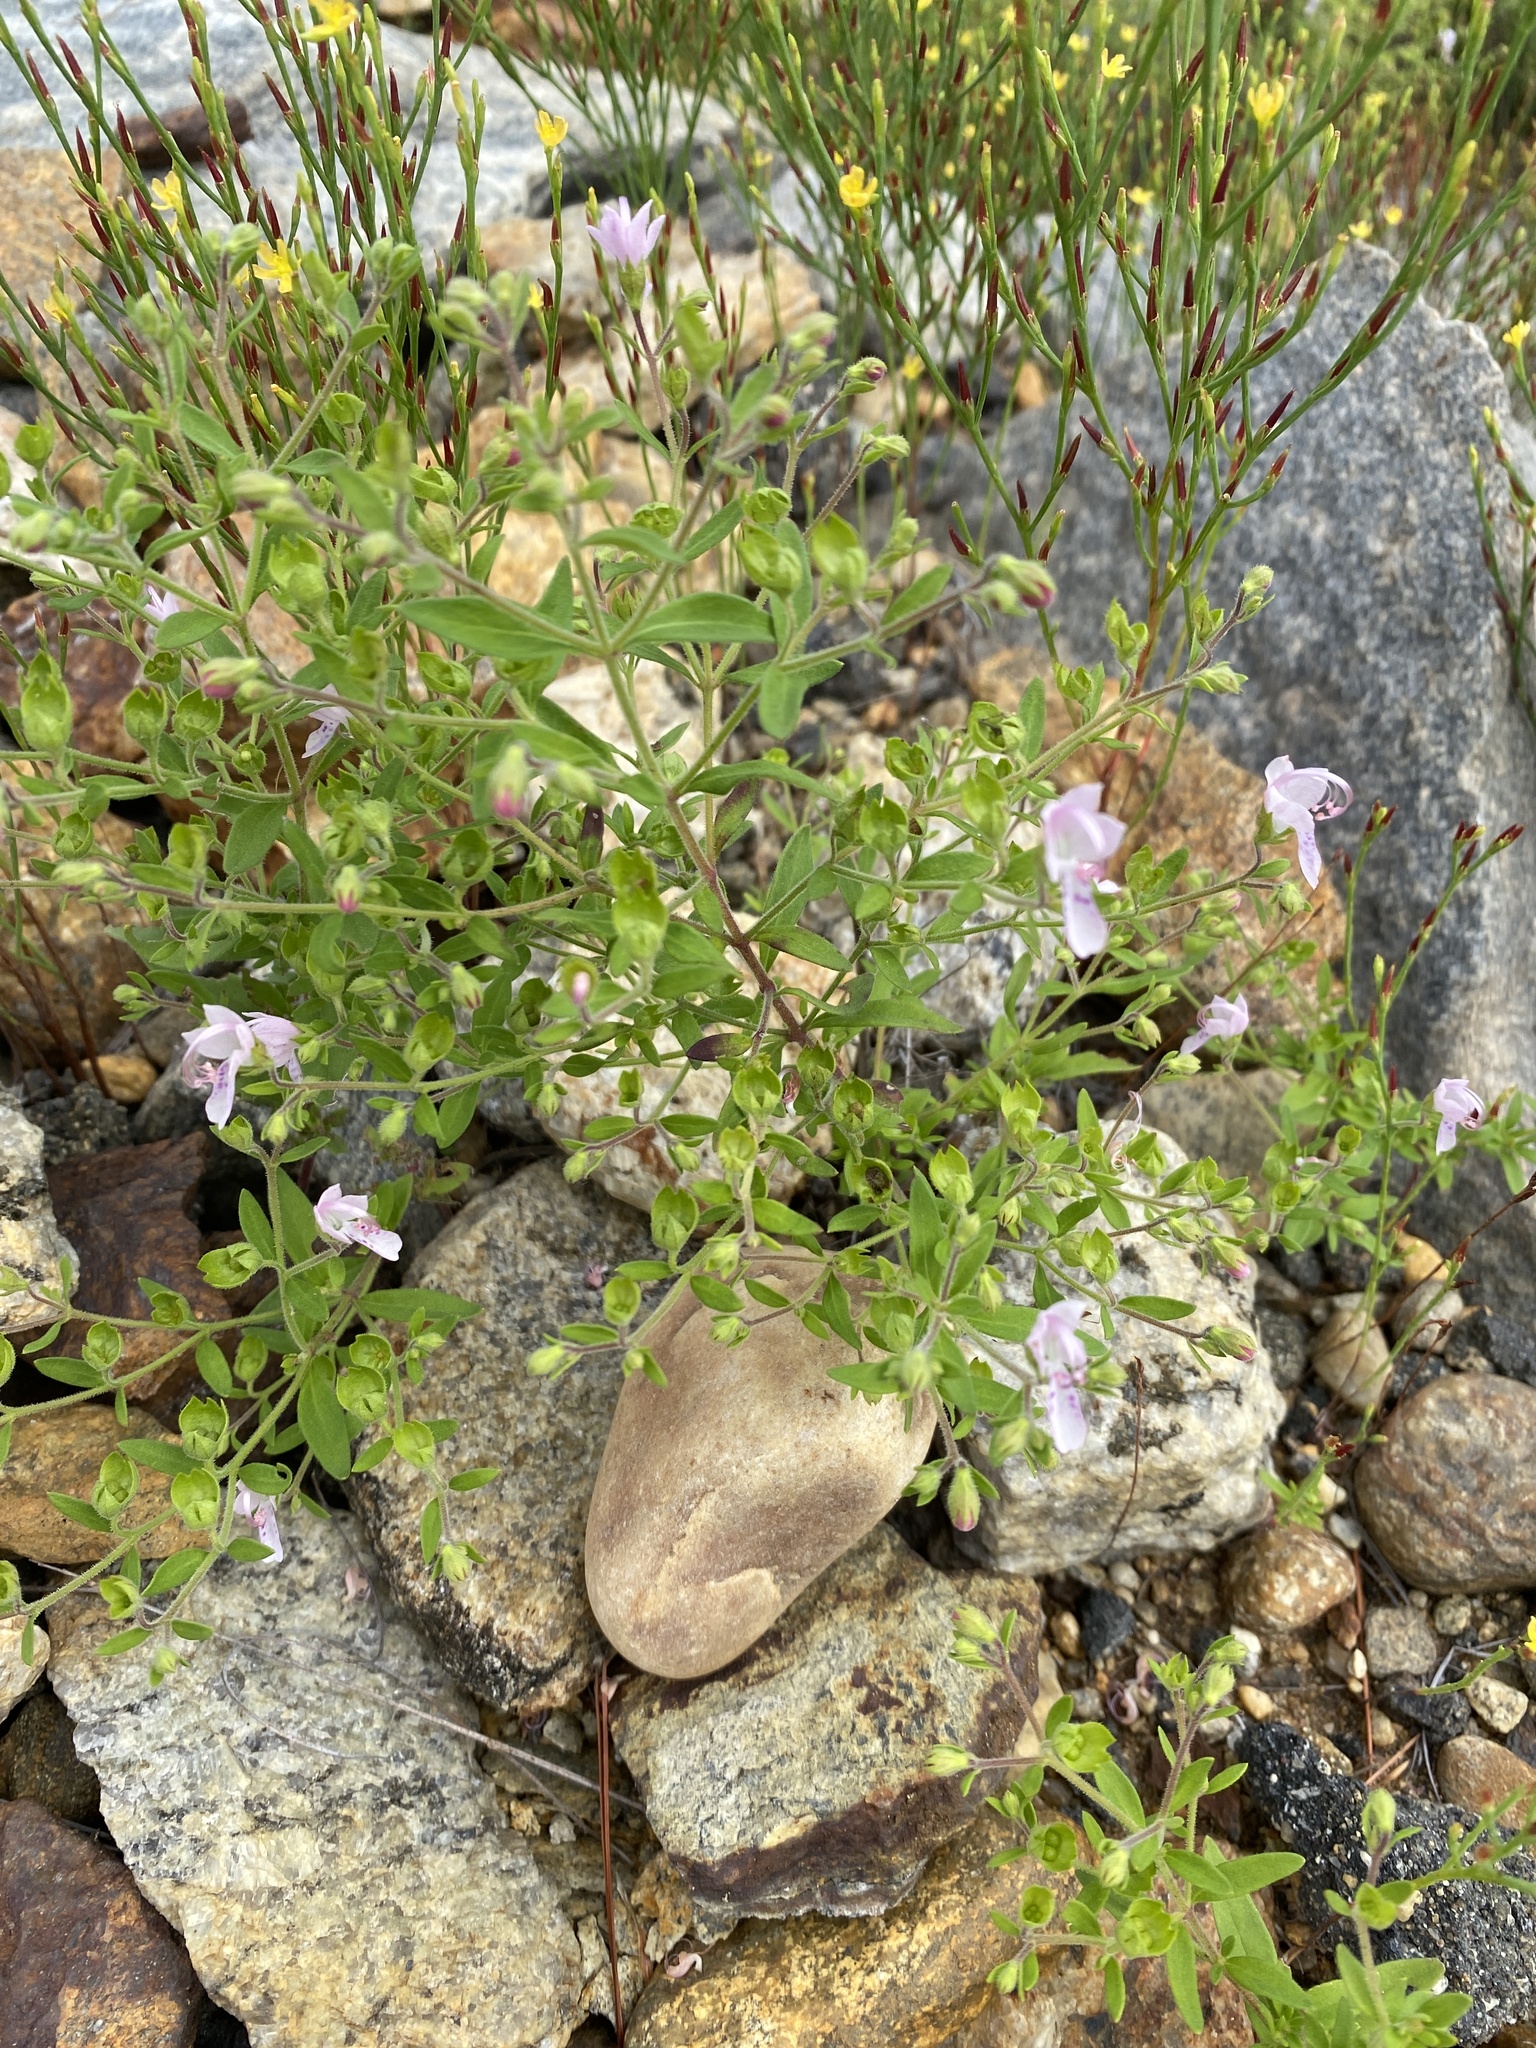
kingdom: Plantae
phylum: Tracheophyta
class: Magnoliopsida
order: Lamiales
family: Lamiaceae
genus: Trichostema
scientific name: Trichostema dichotomum
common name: Bastard pennyroyal
